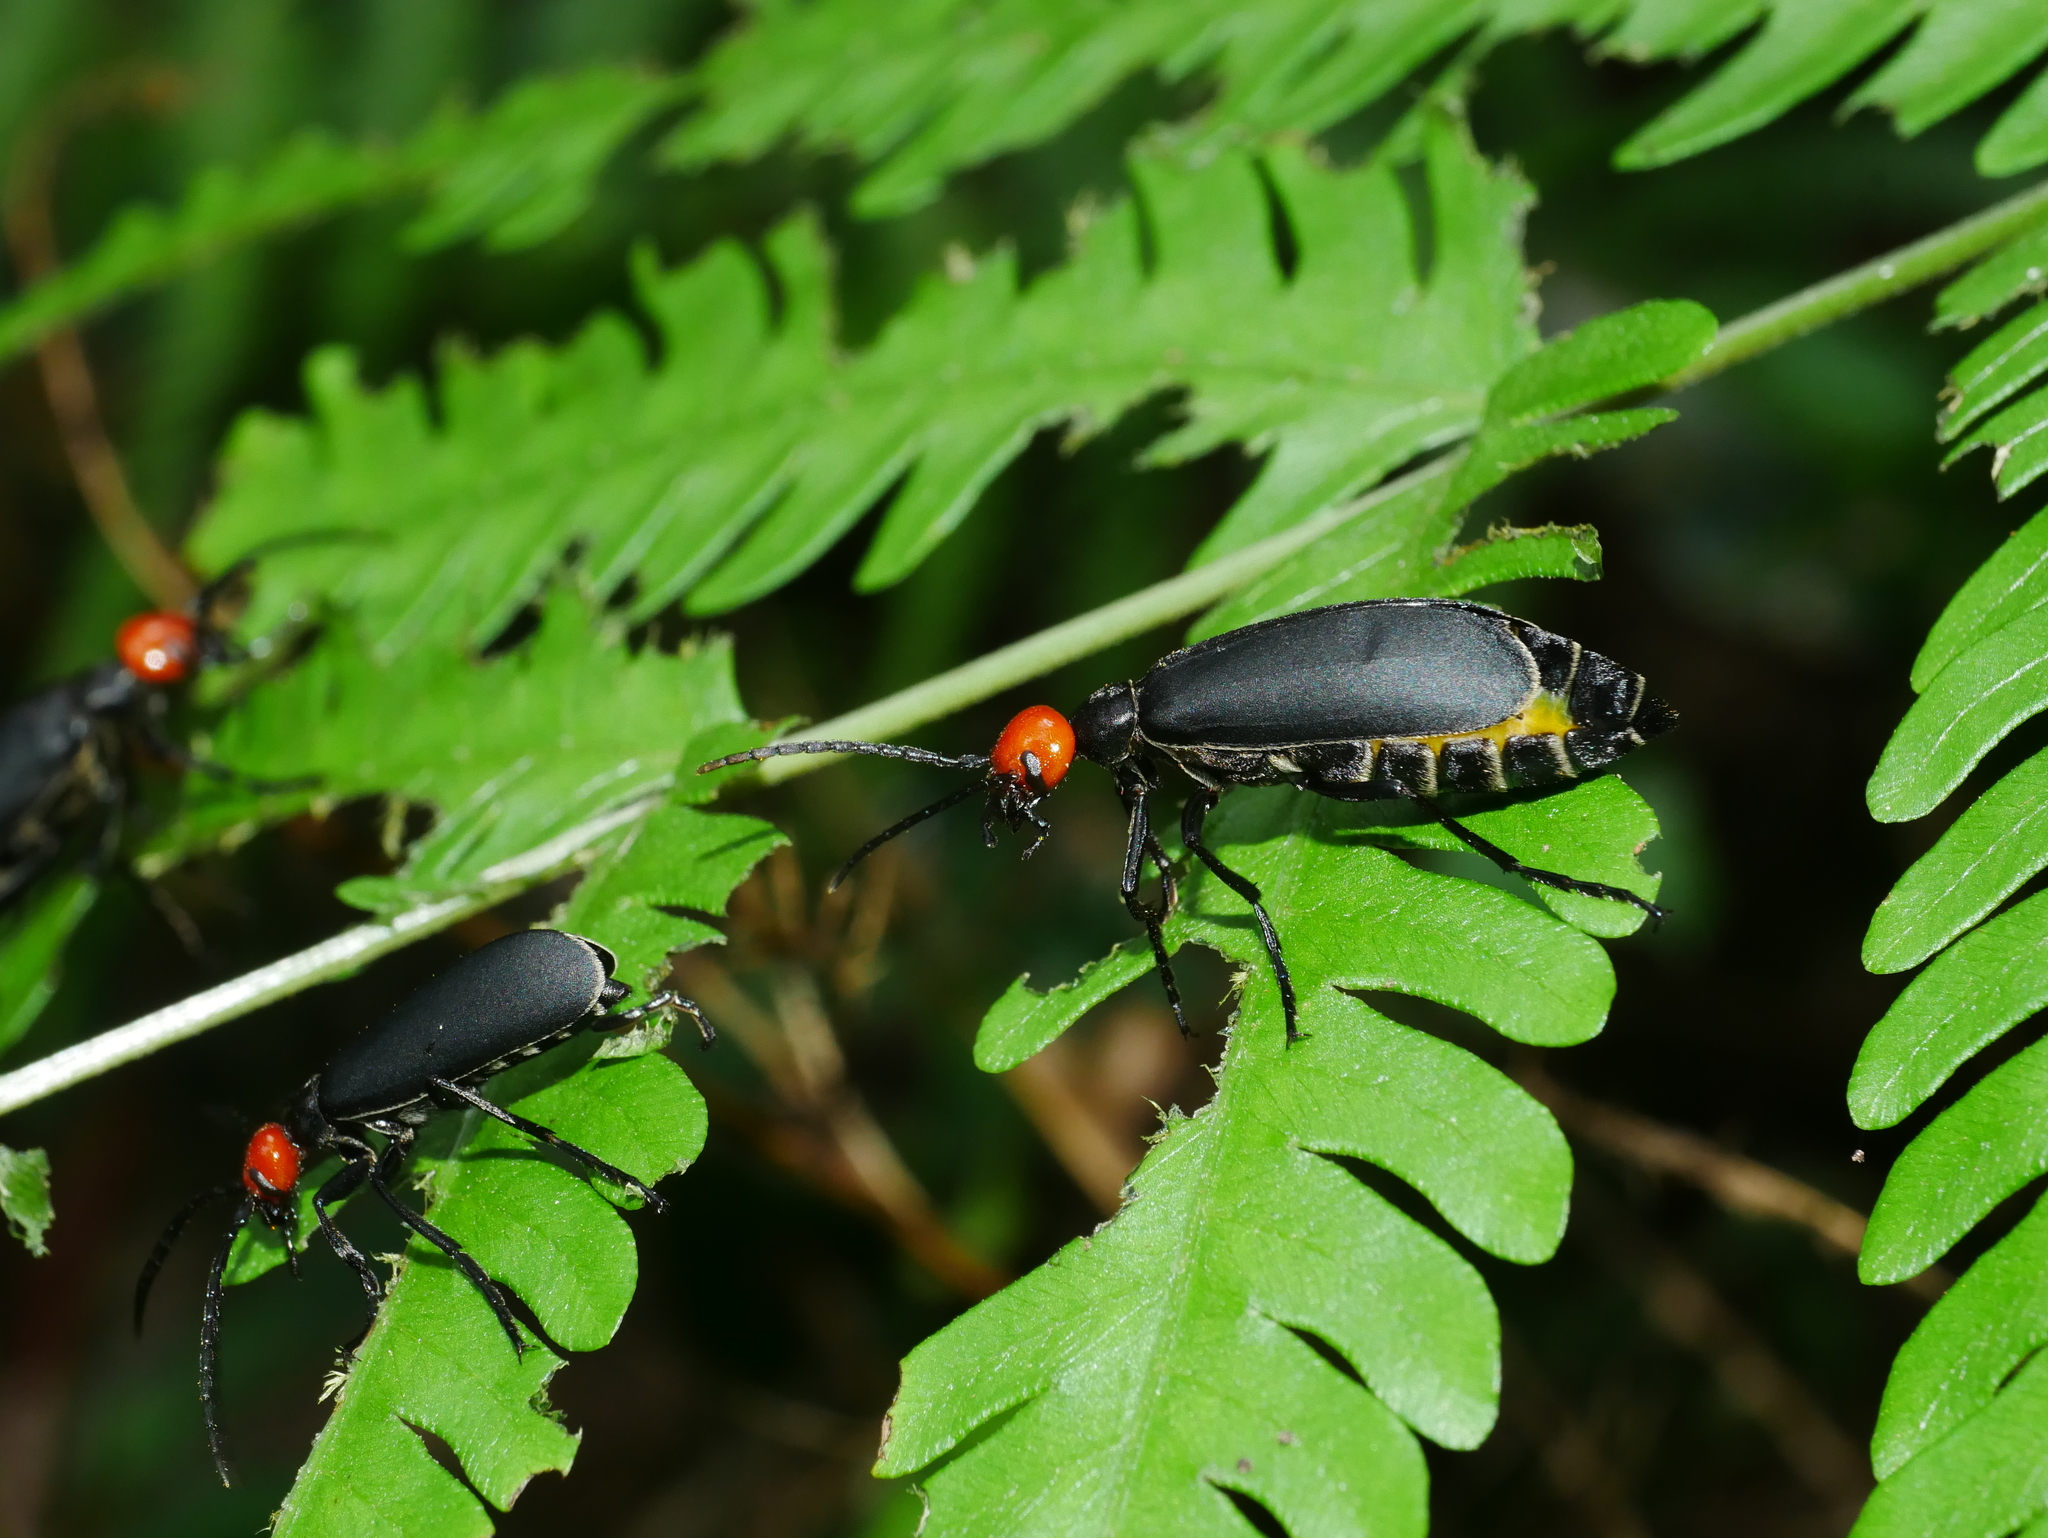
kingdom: Animalia
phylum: Arthropoda
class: Insecta
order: Coleoptera
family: Meloidae
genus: Epicauta
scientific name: Epicauta hirticornis
